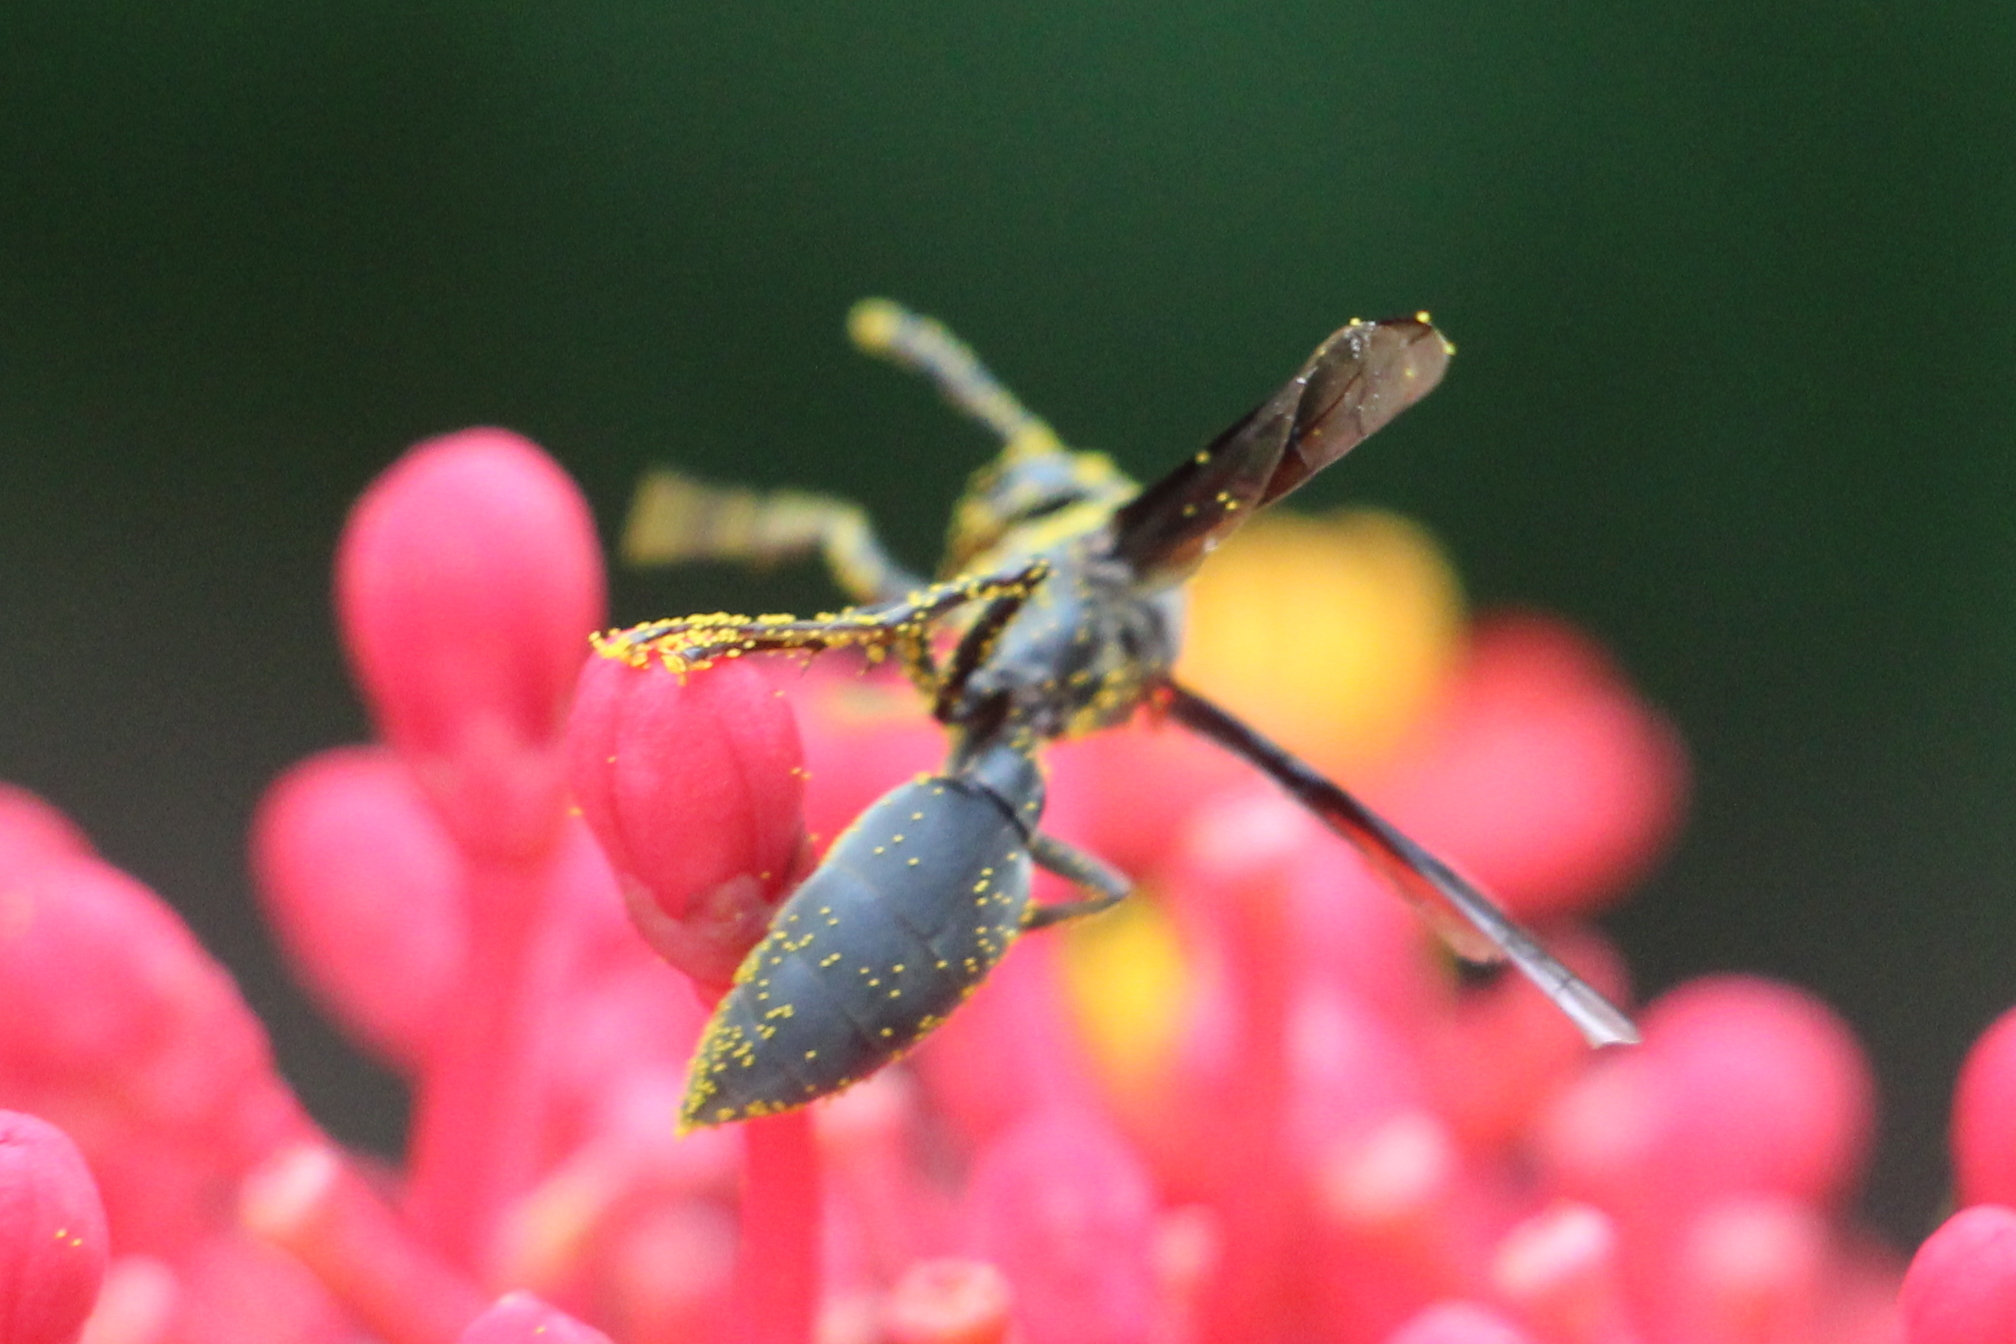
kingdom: Animalia
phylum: Arthropoda
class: Insecta
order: Hymenoptera
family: Eumenidae
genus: Polybia
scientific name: Polybia ignobilis
